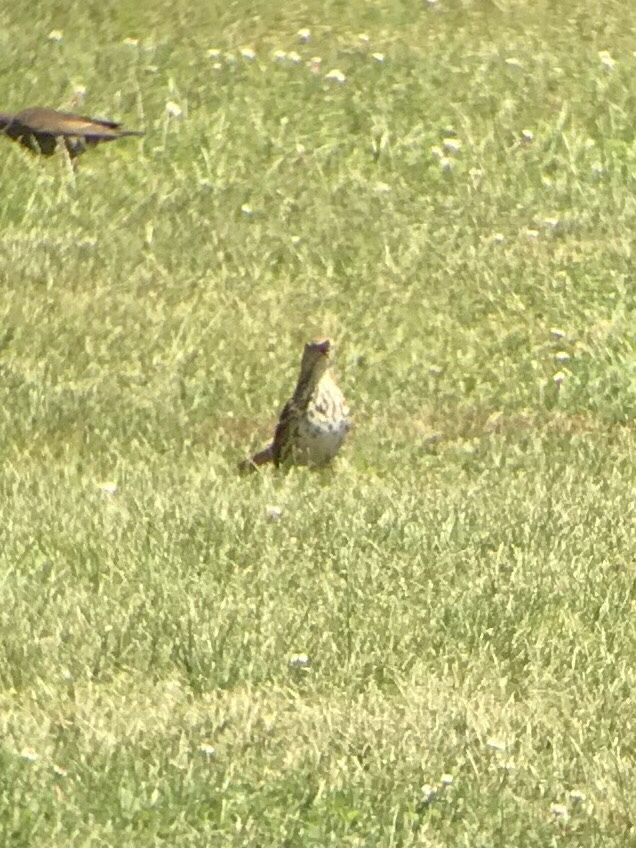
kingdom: Animalia
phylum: Chordata
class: Aves
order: Passeriformes
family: Mimidae
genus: Toxostoma
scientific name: Toxostoma rufum
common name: Brown thrasher
